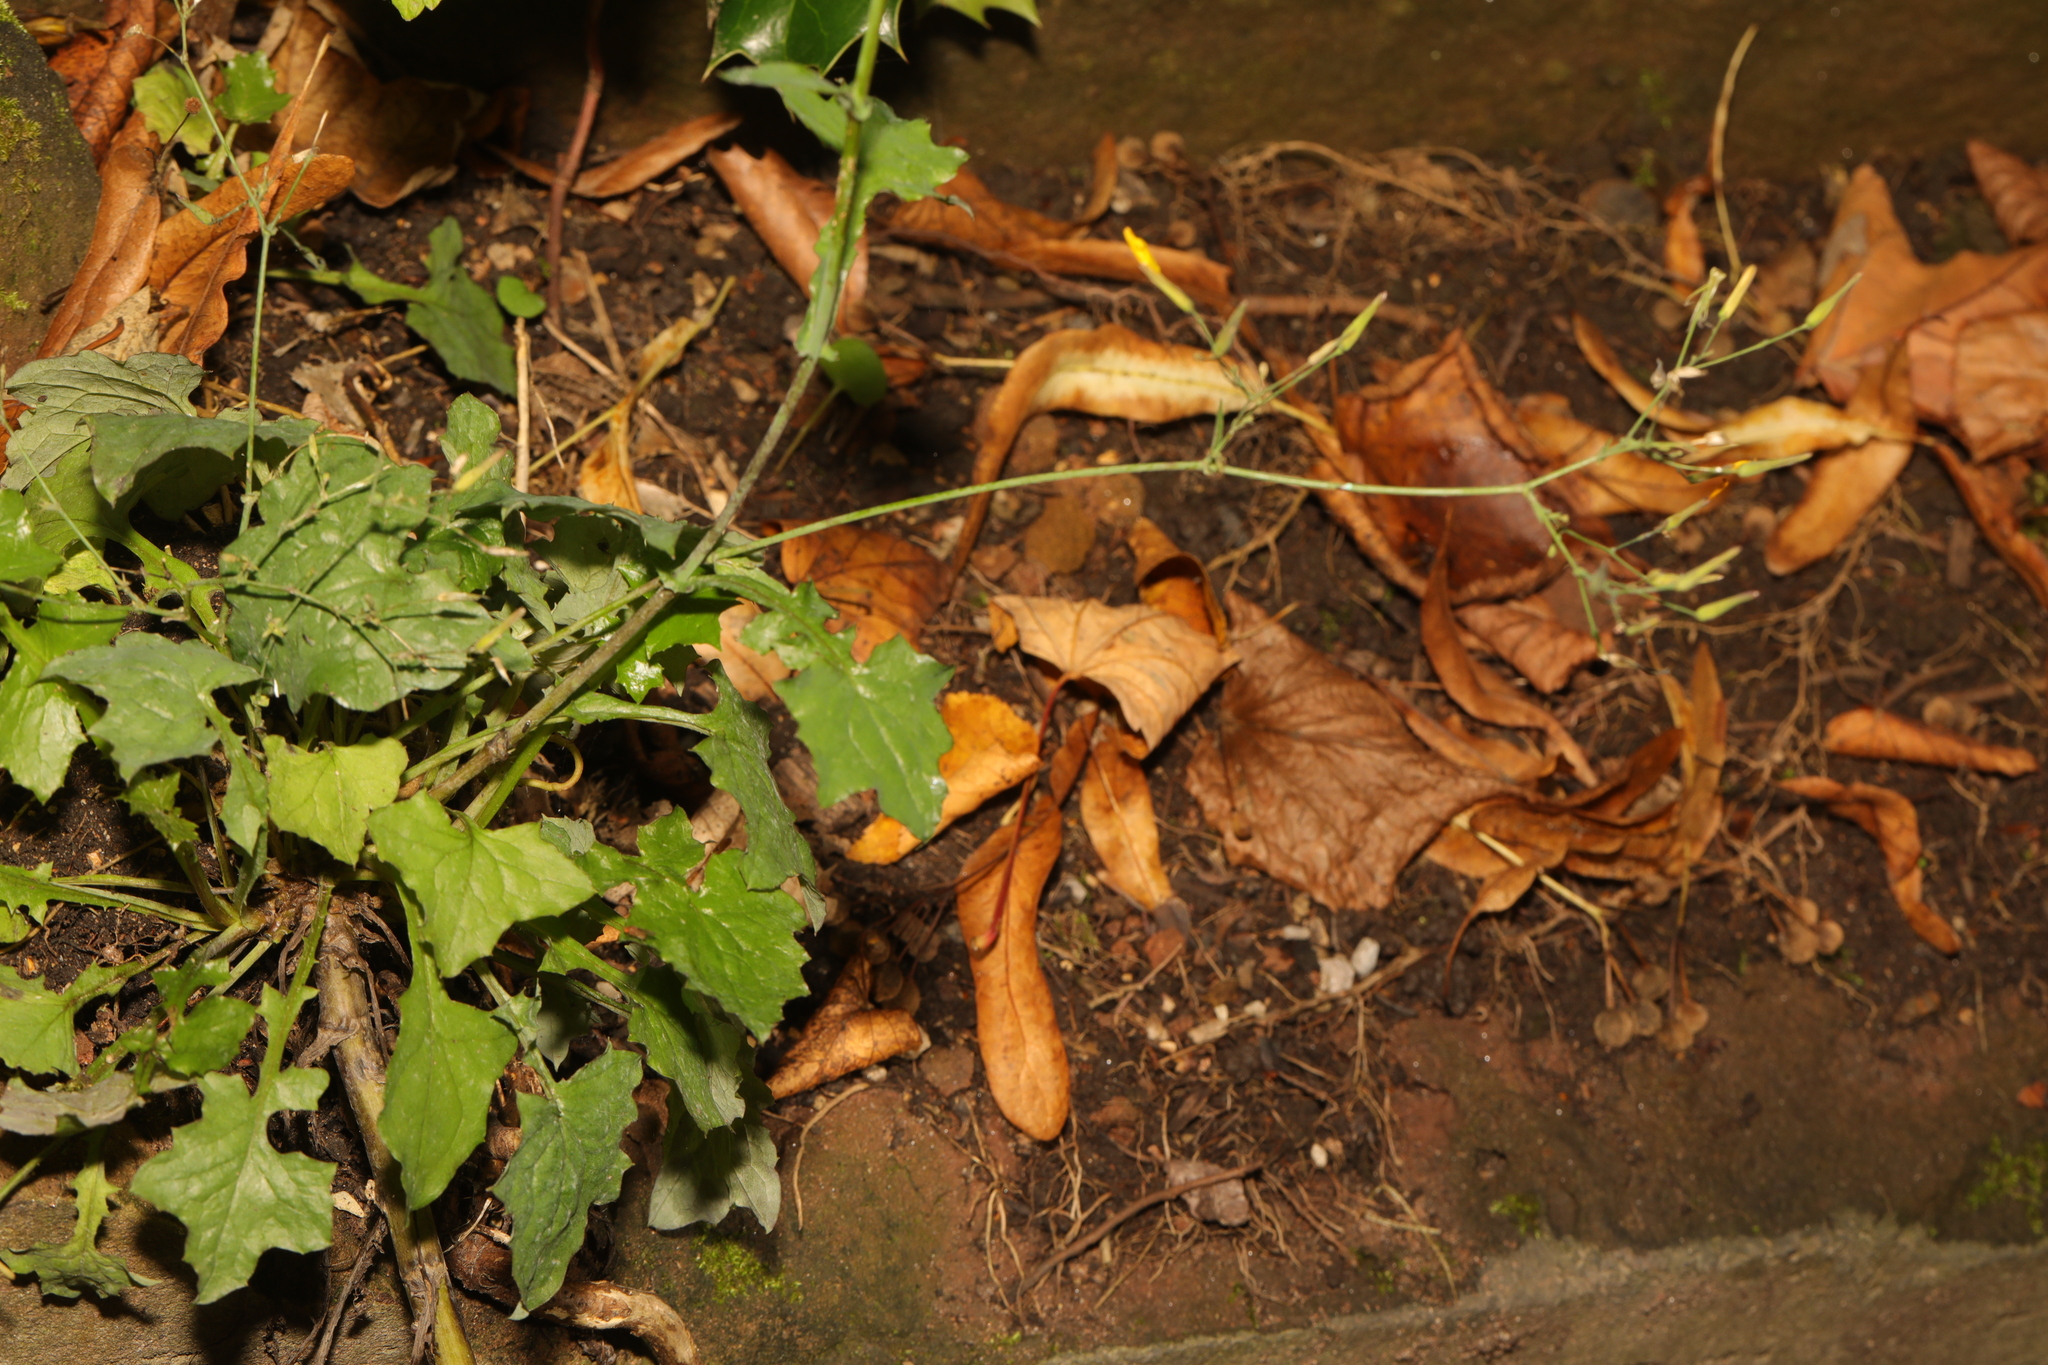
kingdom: Plantae
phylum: Tracheophyta
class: Magnoliopsida
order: Asterales
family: Asteraceae
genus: Mycelis
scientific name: Mycelis muralis
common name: Wall lettuce
